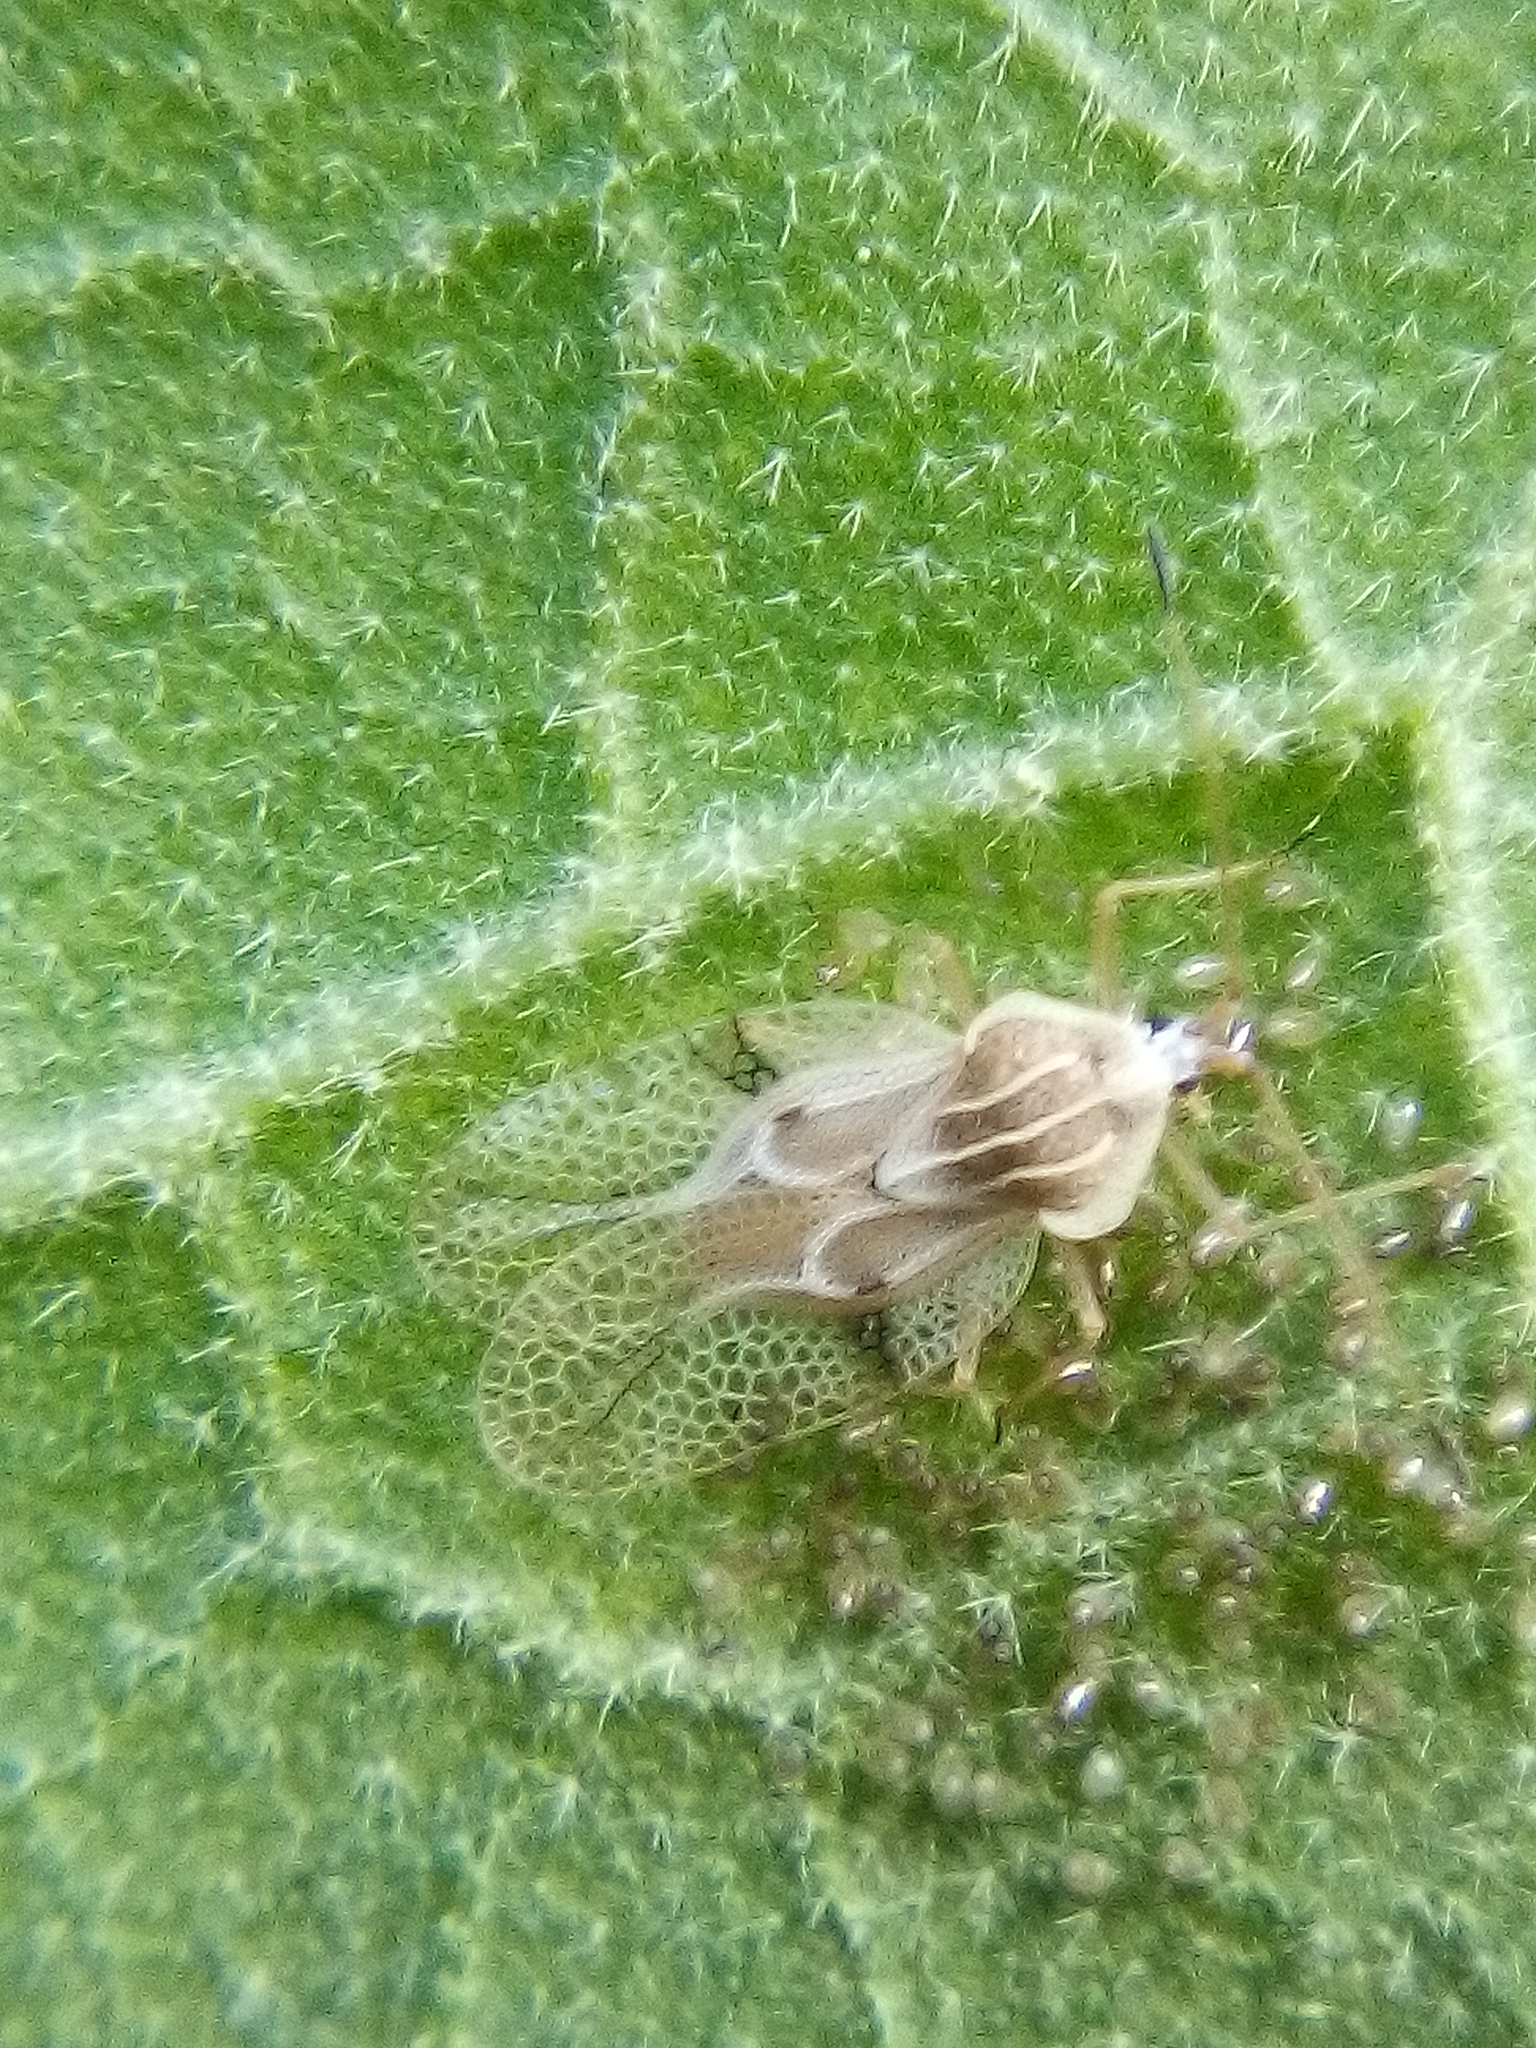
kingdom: Animalia
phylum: Arthropoda
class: Insecta
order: Hemiptera
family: Tingidae
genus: Gargaphia
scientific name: Gargaphia decoris
